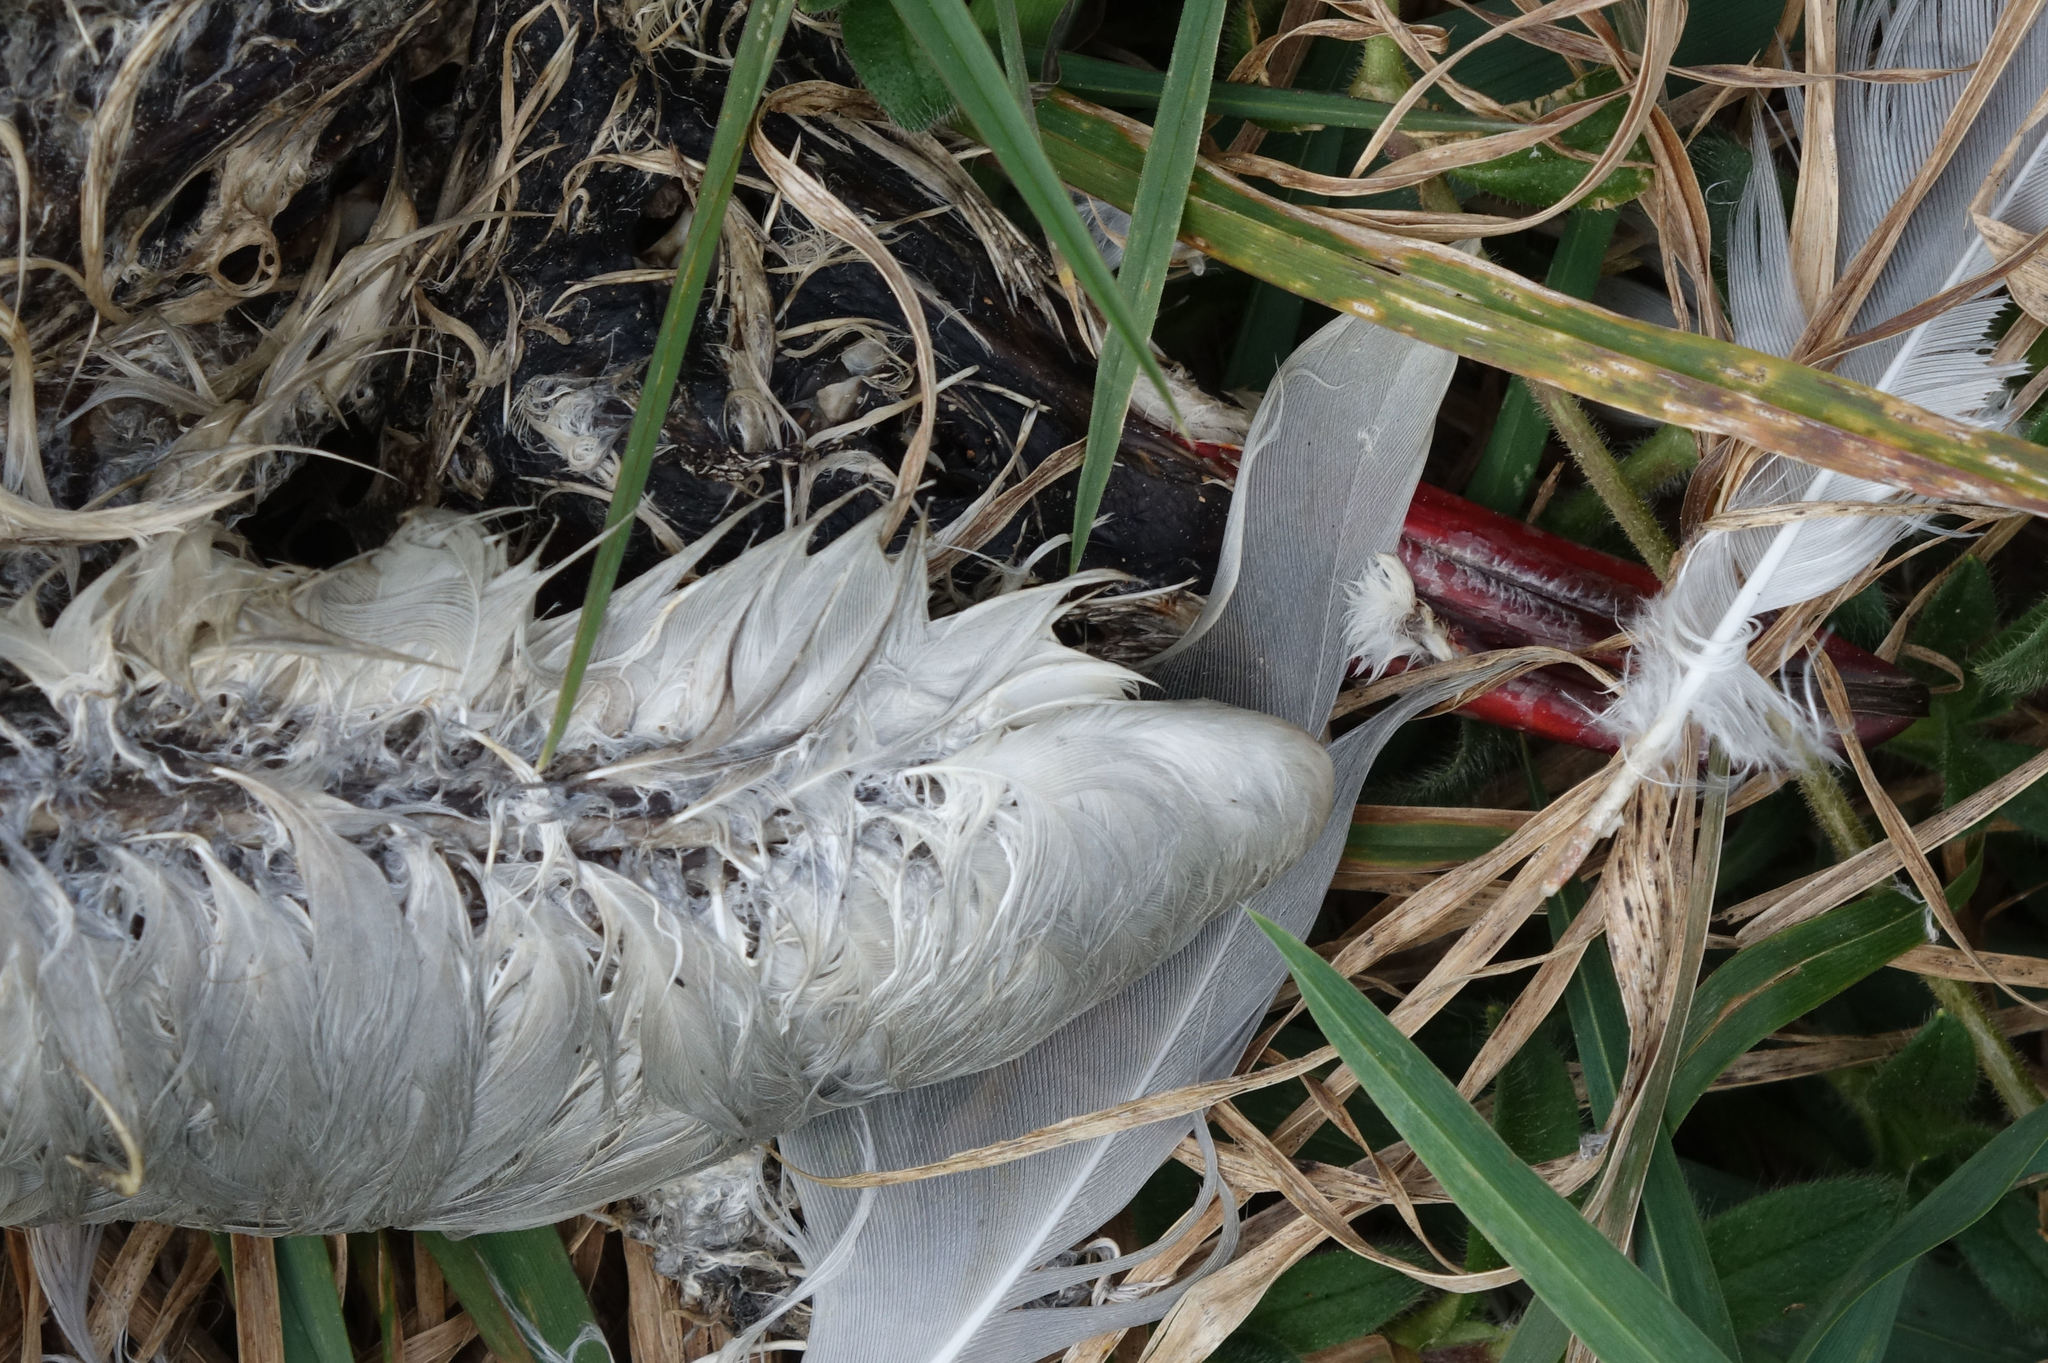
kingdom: Animalia
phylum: Chordata
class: Aves
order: Charadriiformes
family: Laridae
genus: Chroicocephalus
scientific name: Chroicocephalus novaehollandiae
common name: Silver gull
